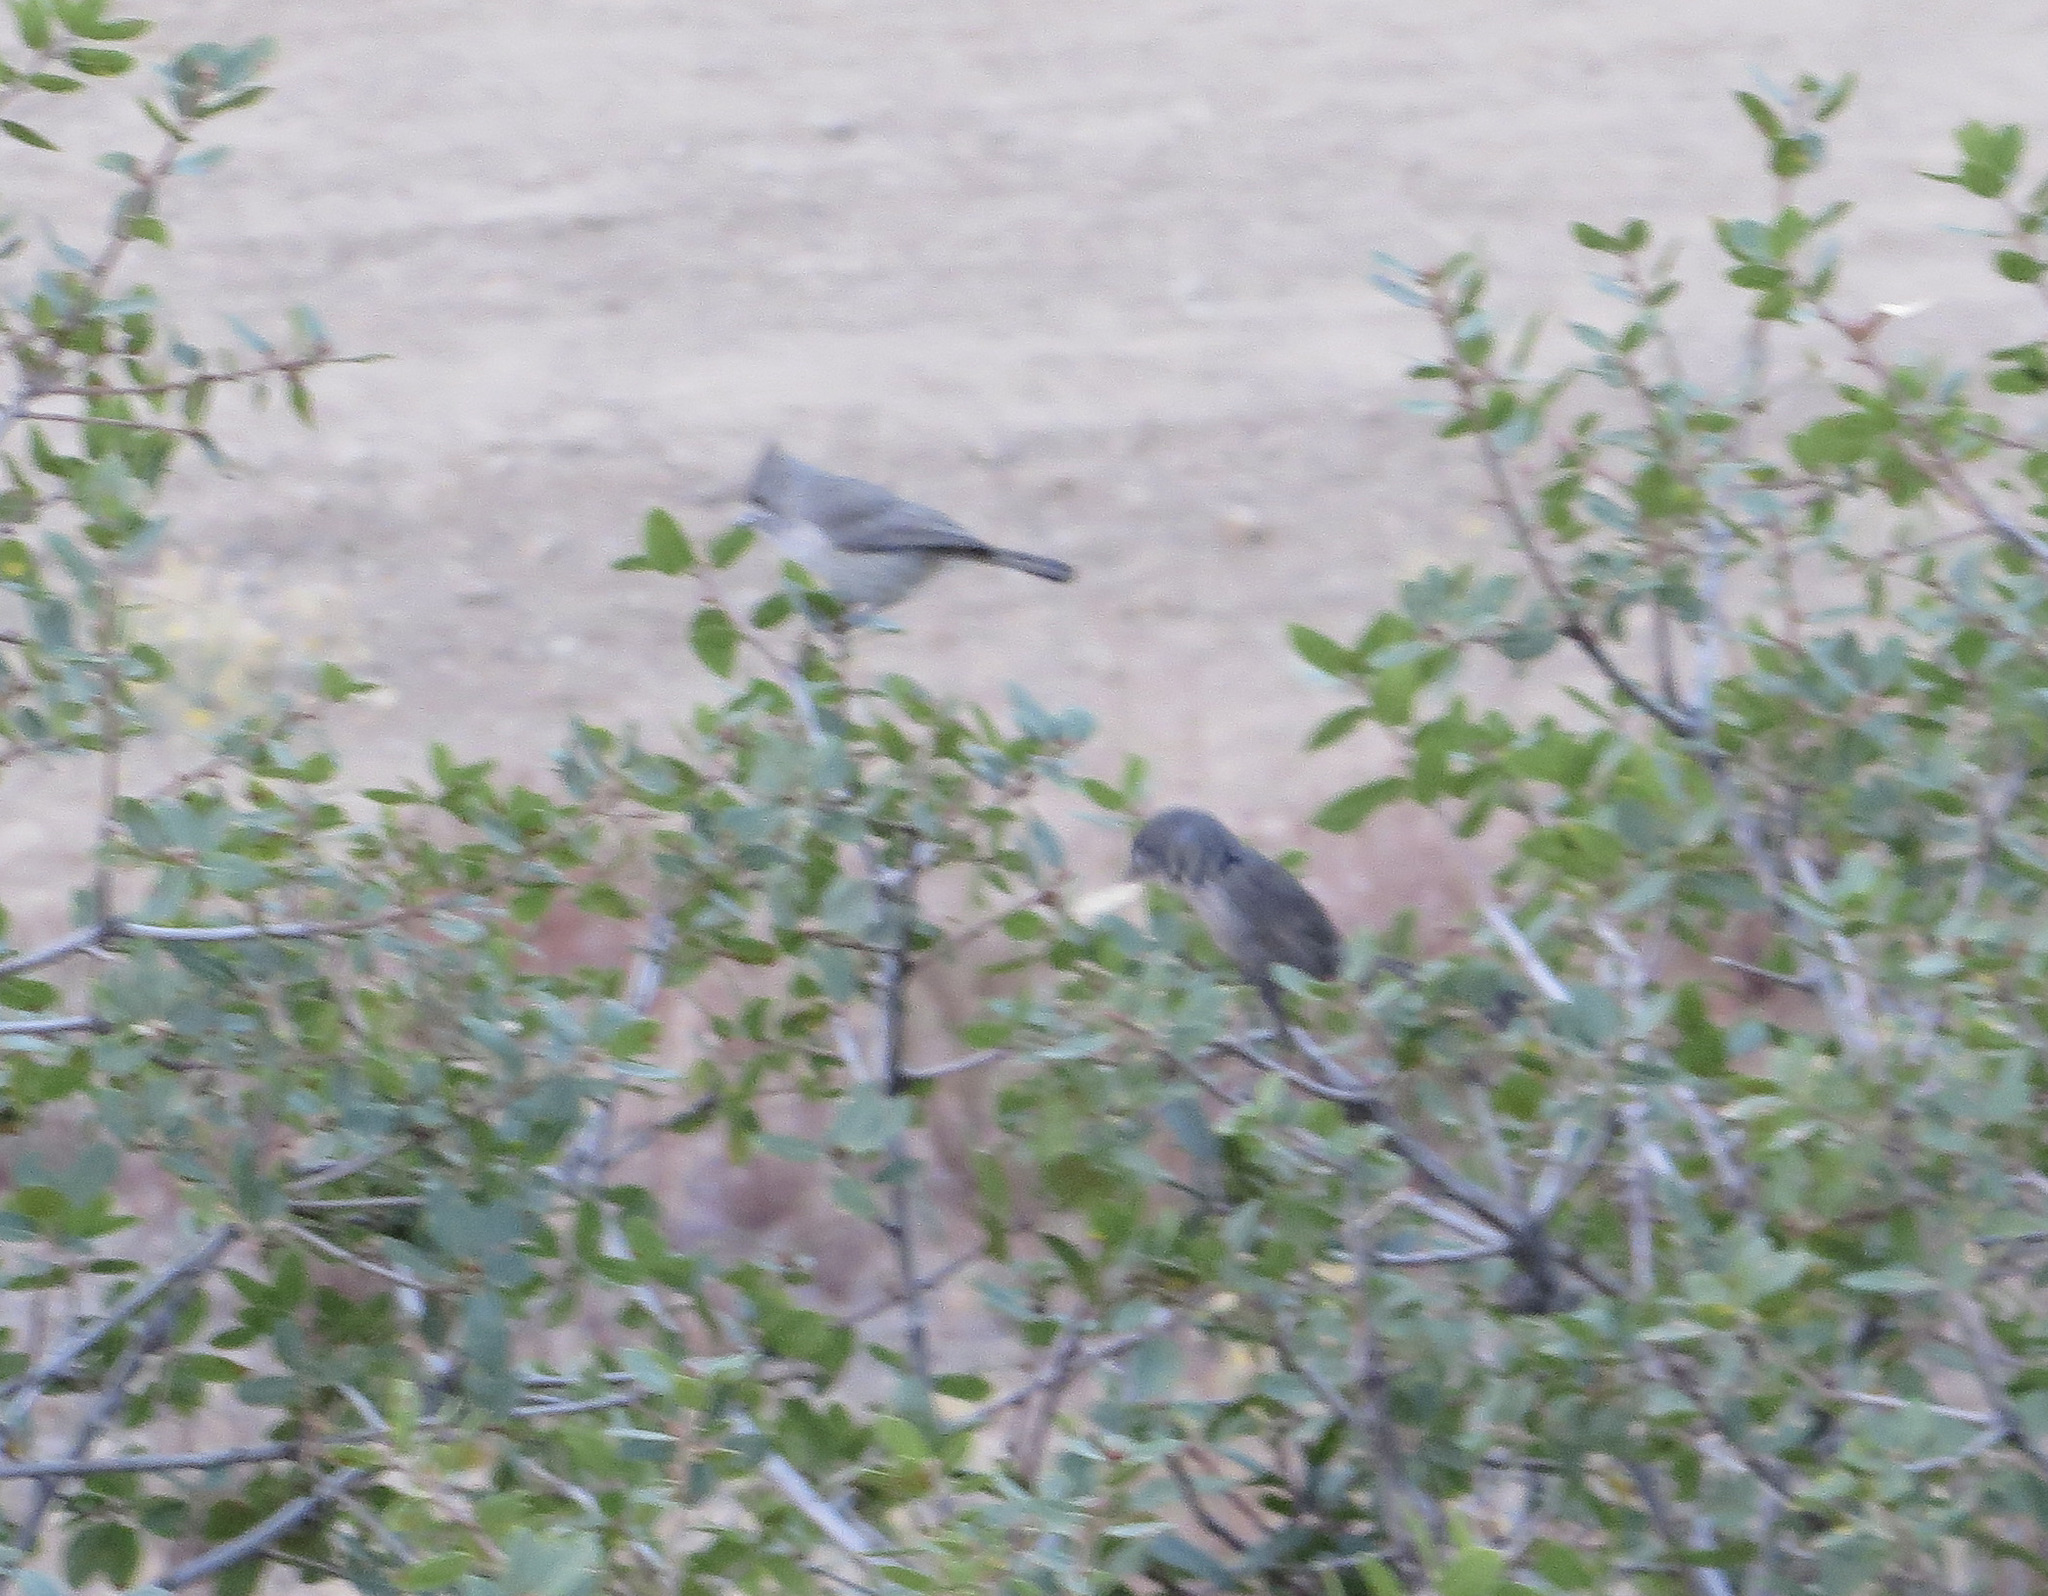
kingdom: Animalia
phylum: Chordata
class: Aves
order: Passeriformes
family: Paridae
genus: Baeolophus
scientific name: Baeolophus inornatus
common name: Oak titmouse
